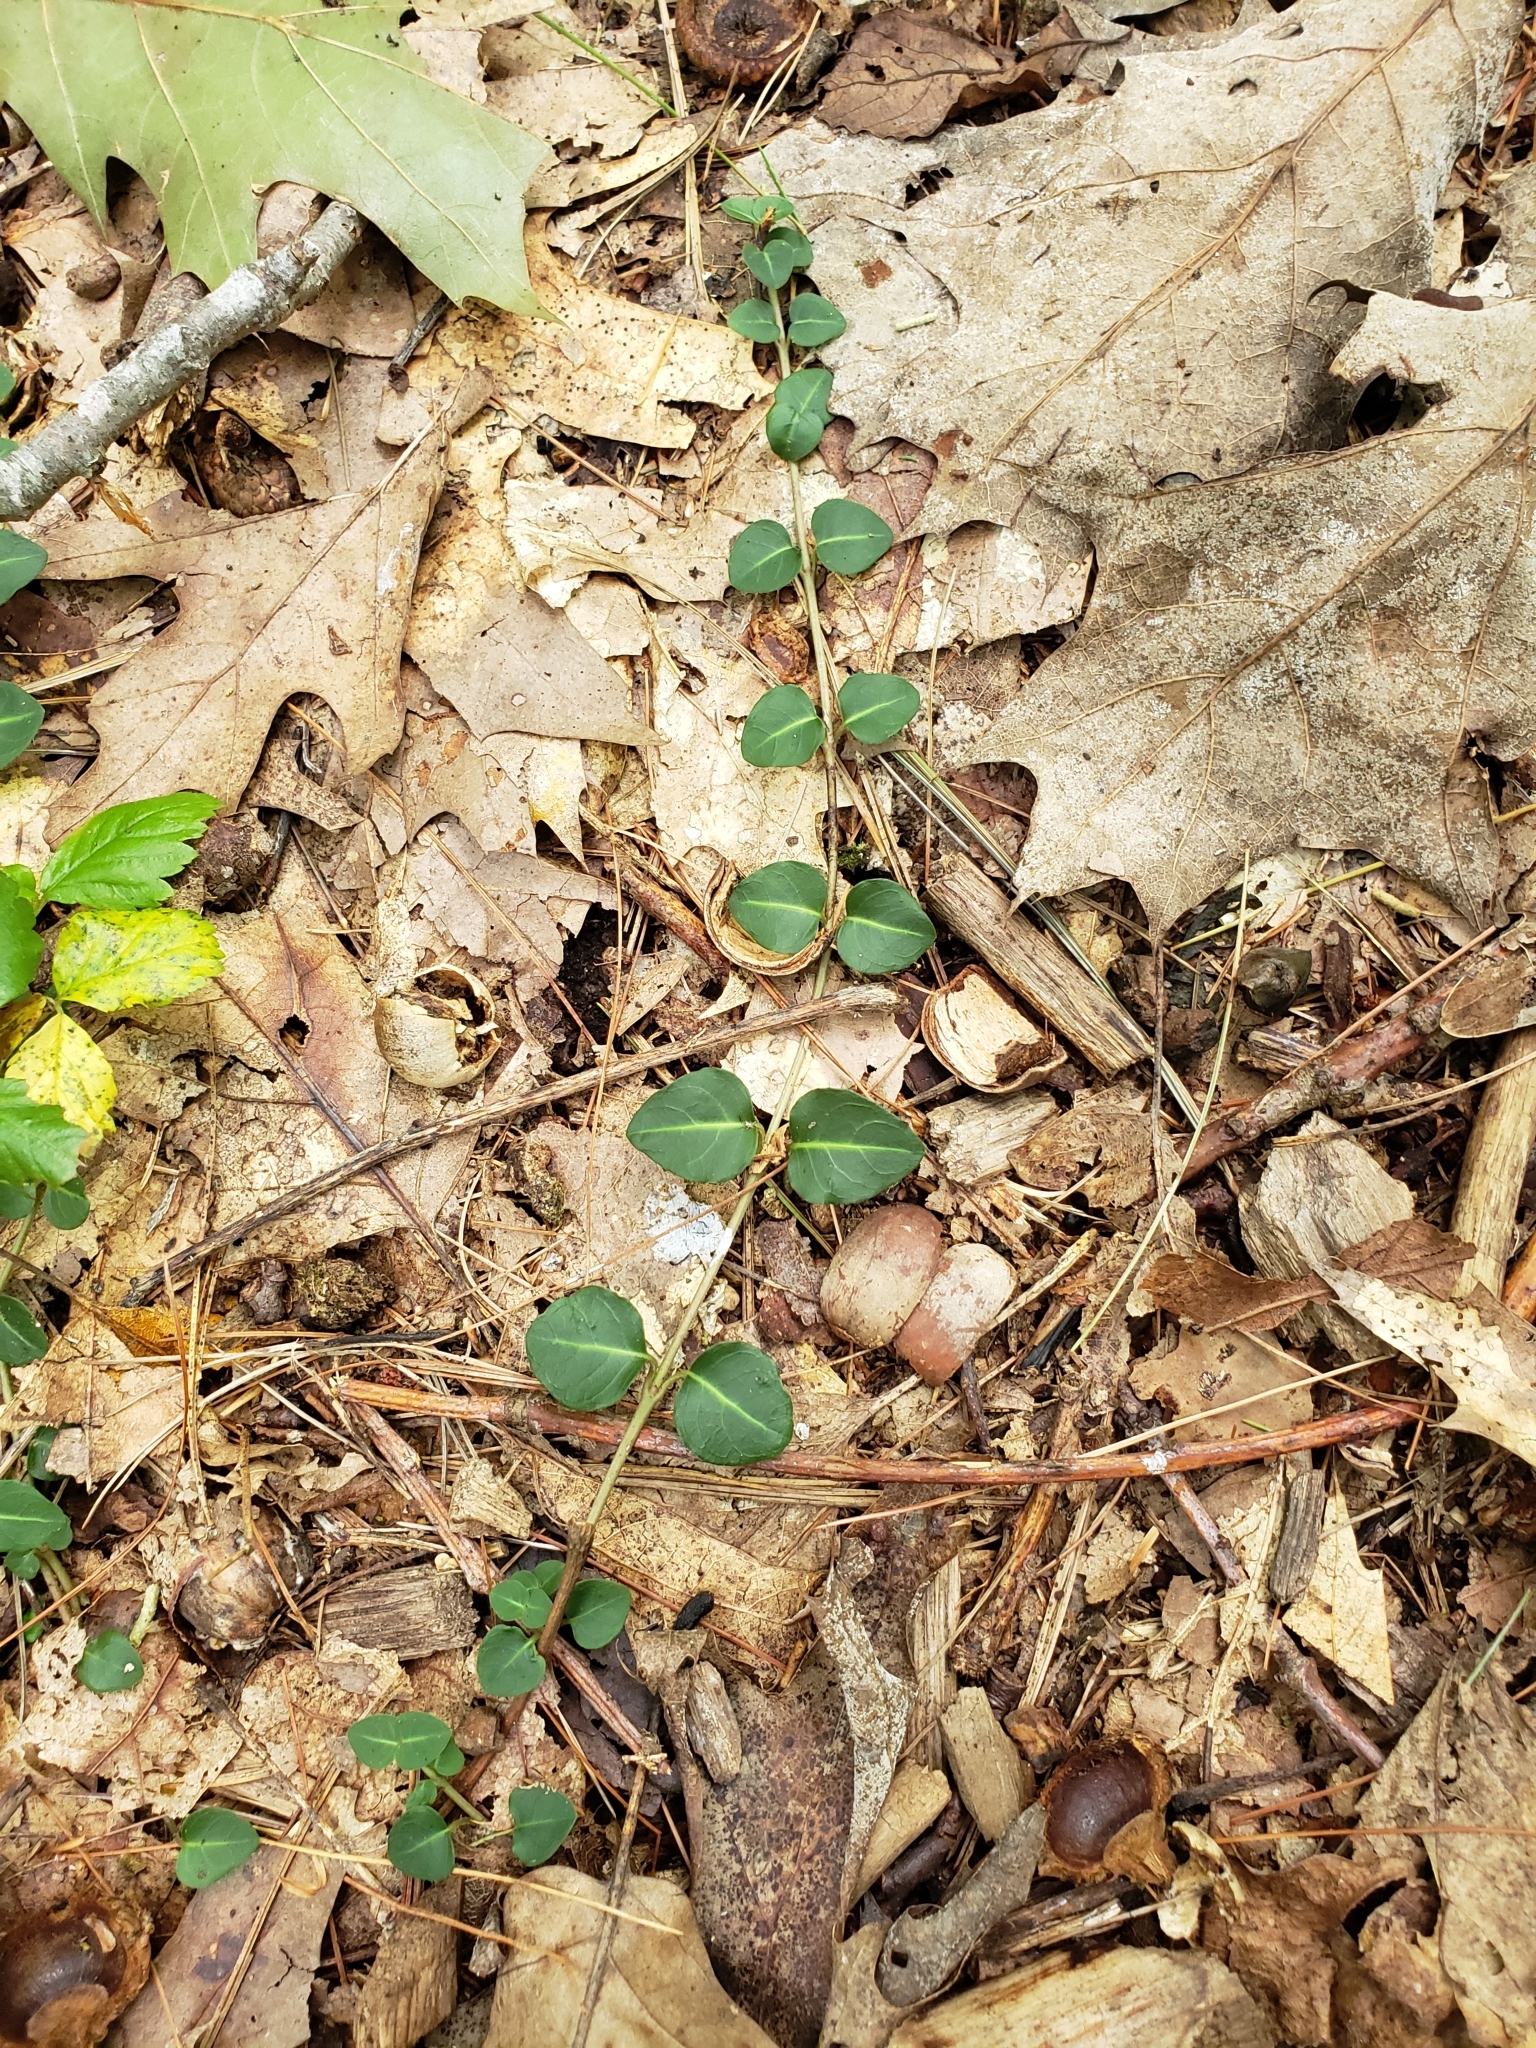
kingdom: Plantae
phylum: Tracheophyta
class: Magnoliopsida
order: Gentianales
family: Rubiaceae
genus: Mitchella
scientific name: Mitchella repens
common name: Partridge-berry
